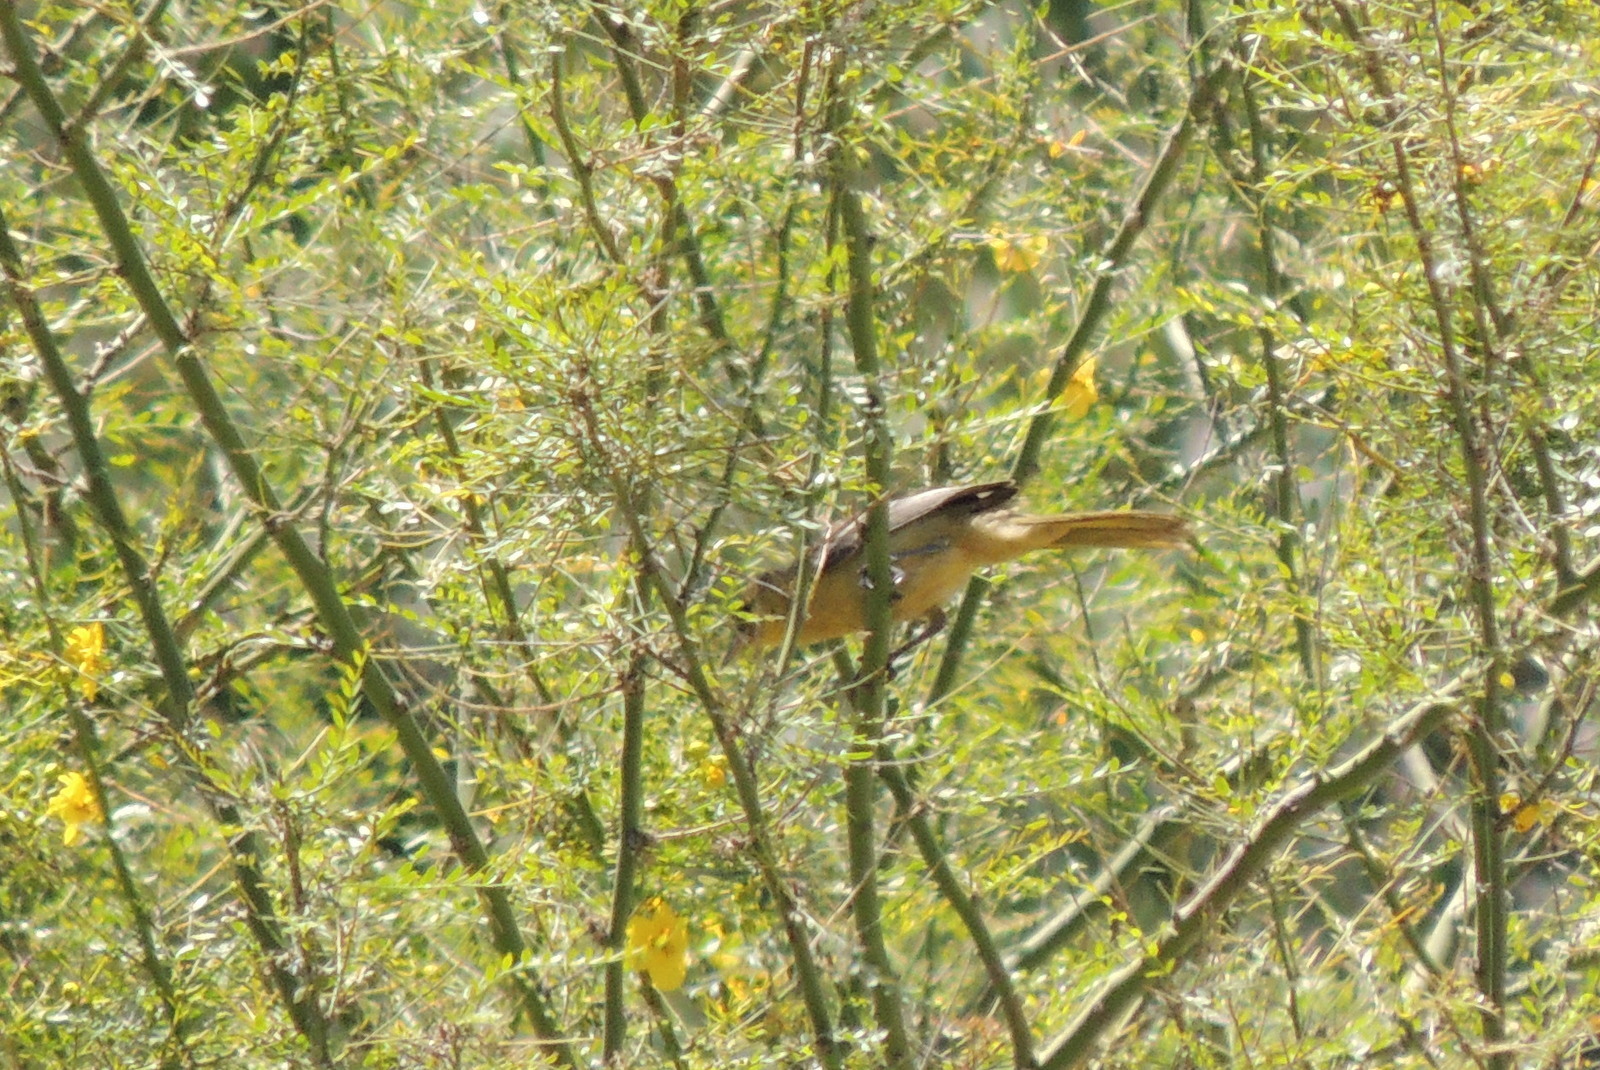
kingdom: Animalia
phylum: Chordata
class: Aves
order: Passeriformes
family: Icteridae
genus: Icterus
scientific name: Icterus
